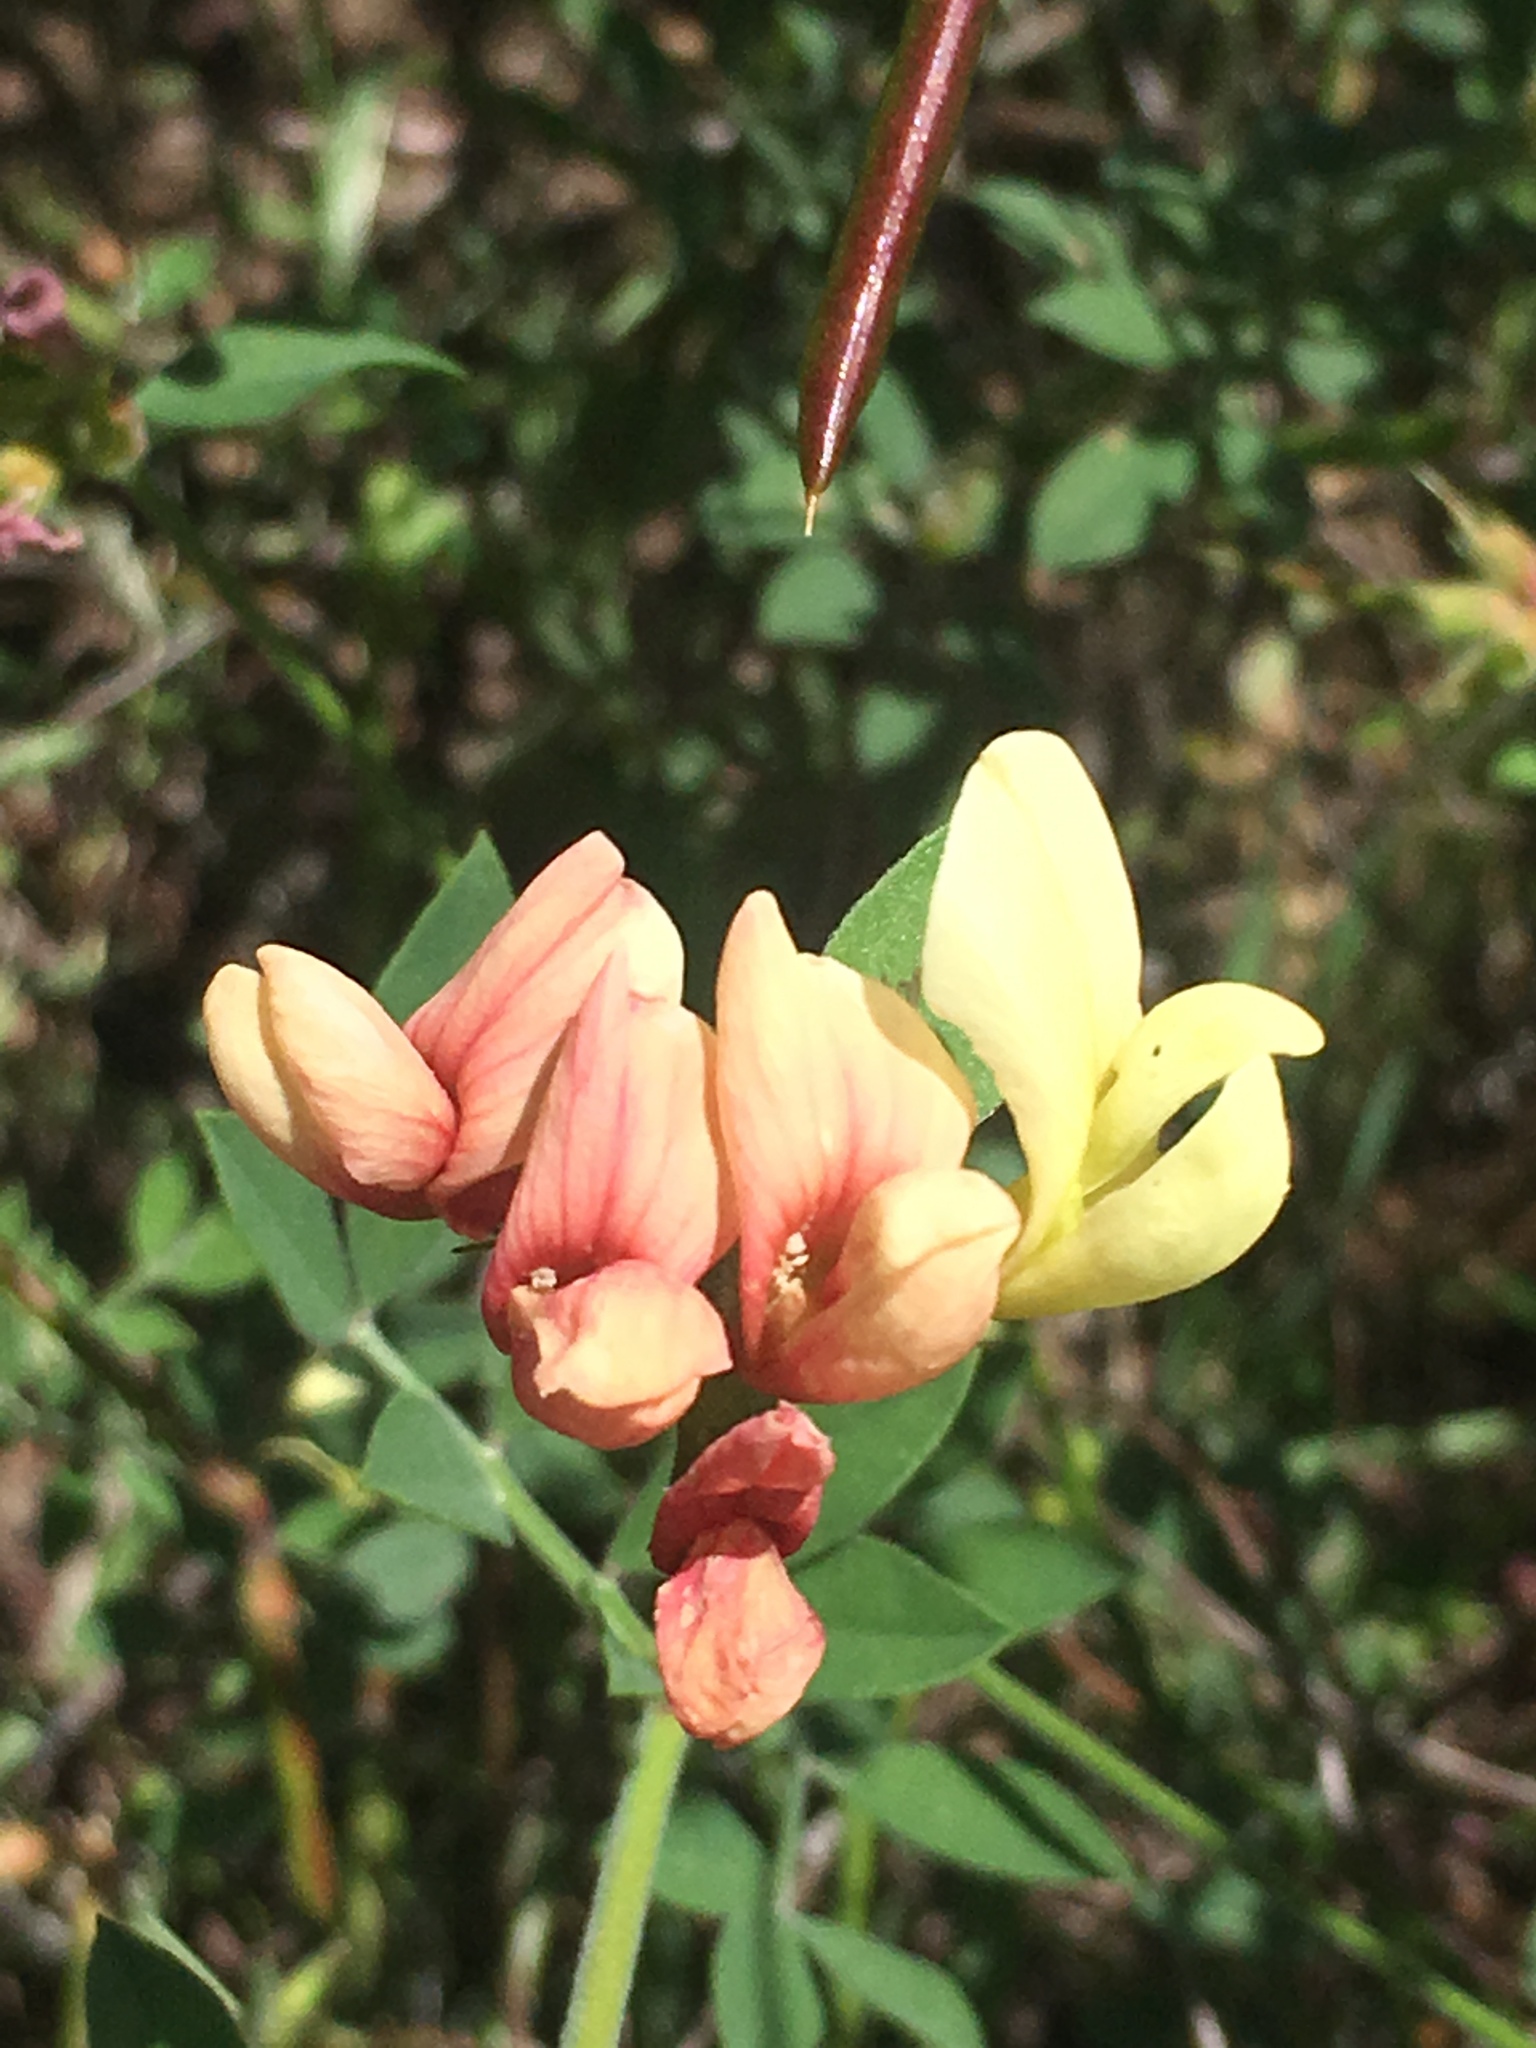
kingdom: Plantae
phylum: Tracheophyta
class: Magnoliopsida
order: Fabales
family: Fabaceae
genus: Acmispon
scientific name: Acmispon grandiflorus
